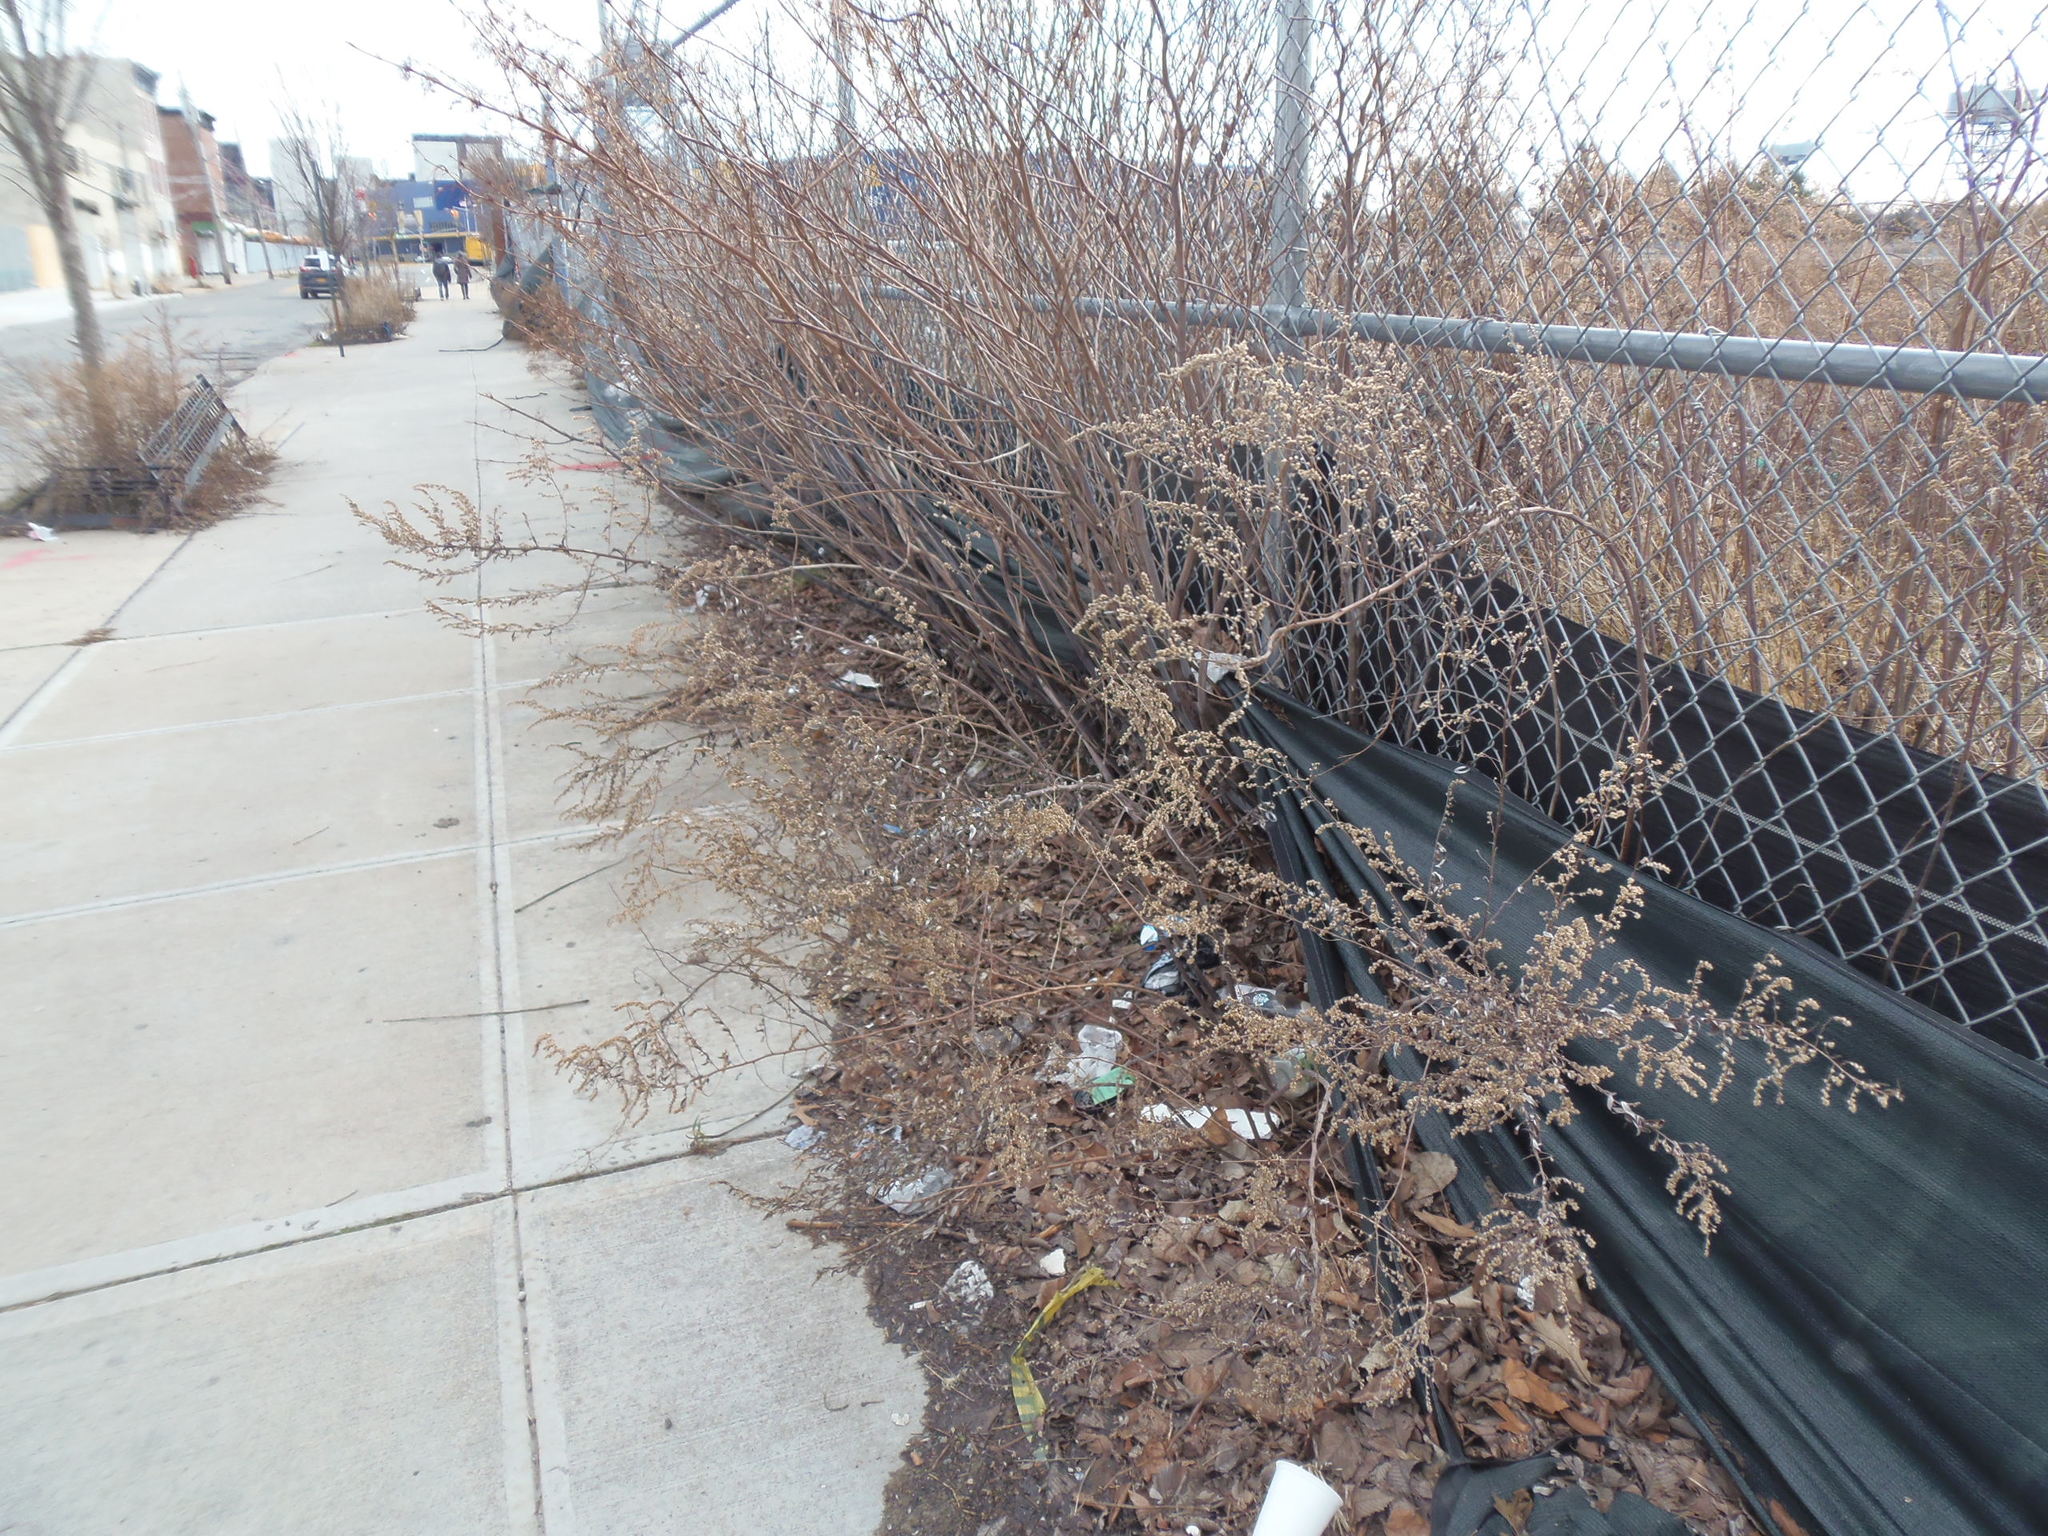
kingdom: Plantae
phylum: Tracheophyta
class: Magnoliopsida
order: Caryophyllales
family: Polygonaceae
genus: Reynoutria
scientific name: Reynoutria japonica
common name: Japanese knotweed
